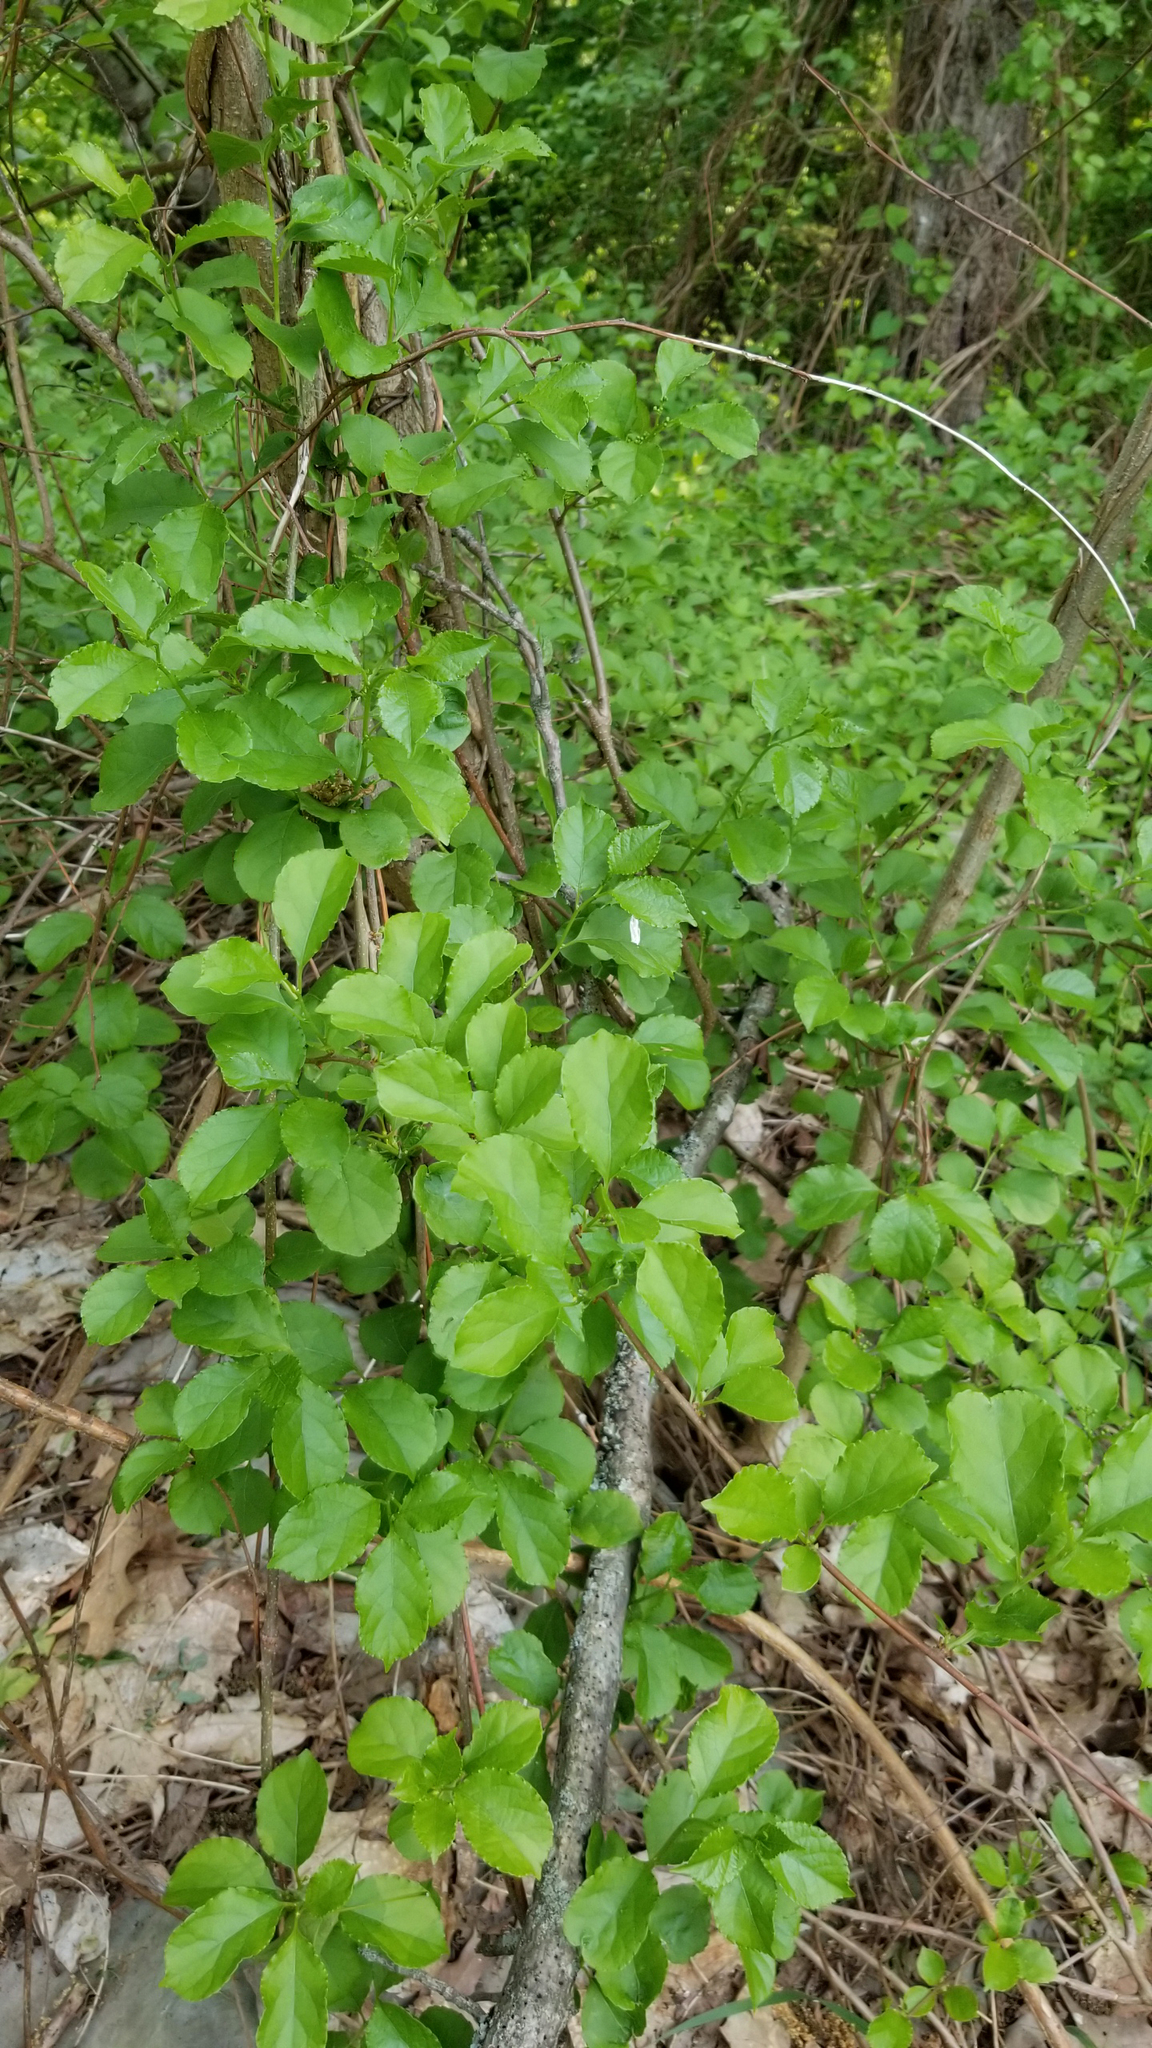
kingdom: Plantae
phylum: Tracheophyta
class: Magnoliopsida
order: Celastrales
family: Celastraceae
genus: Celastrus
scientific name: Celastrus orbiculatus
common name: Oriental bittersweet
